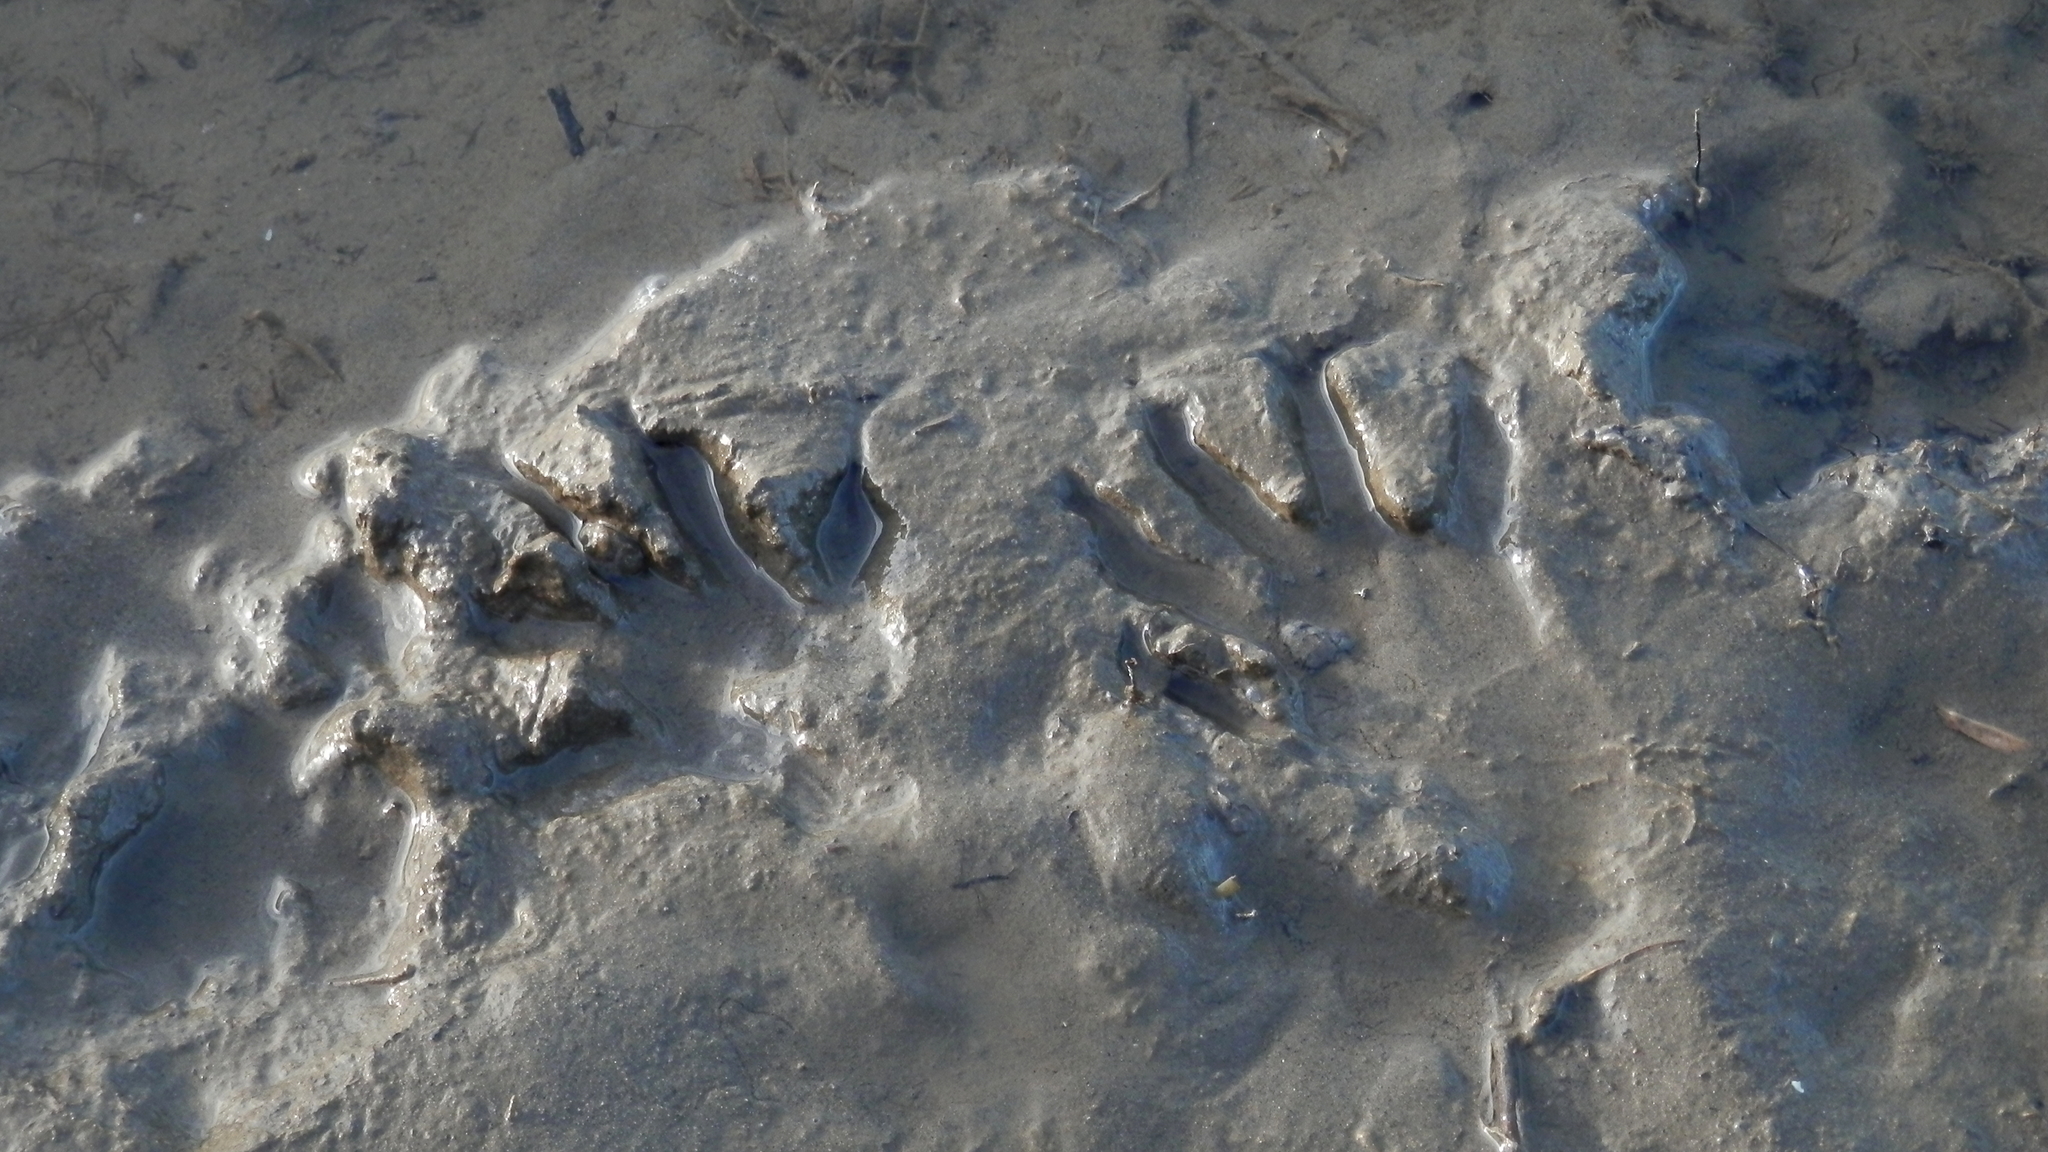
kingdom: Animalia
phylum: Chordata
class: Mammalia
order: Carnivora
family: Procyonidae
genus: Procyon
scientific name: Procyon lotor
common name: Raccoon
